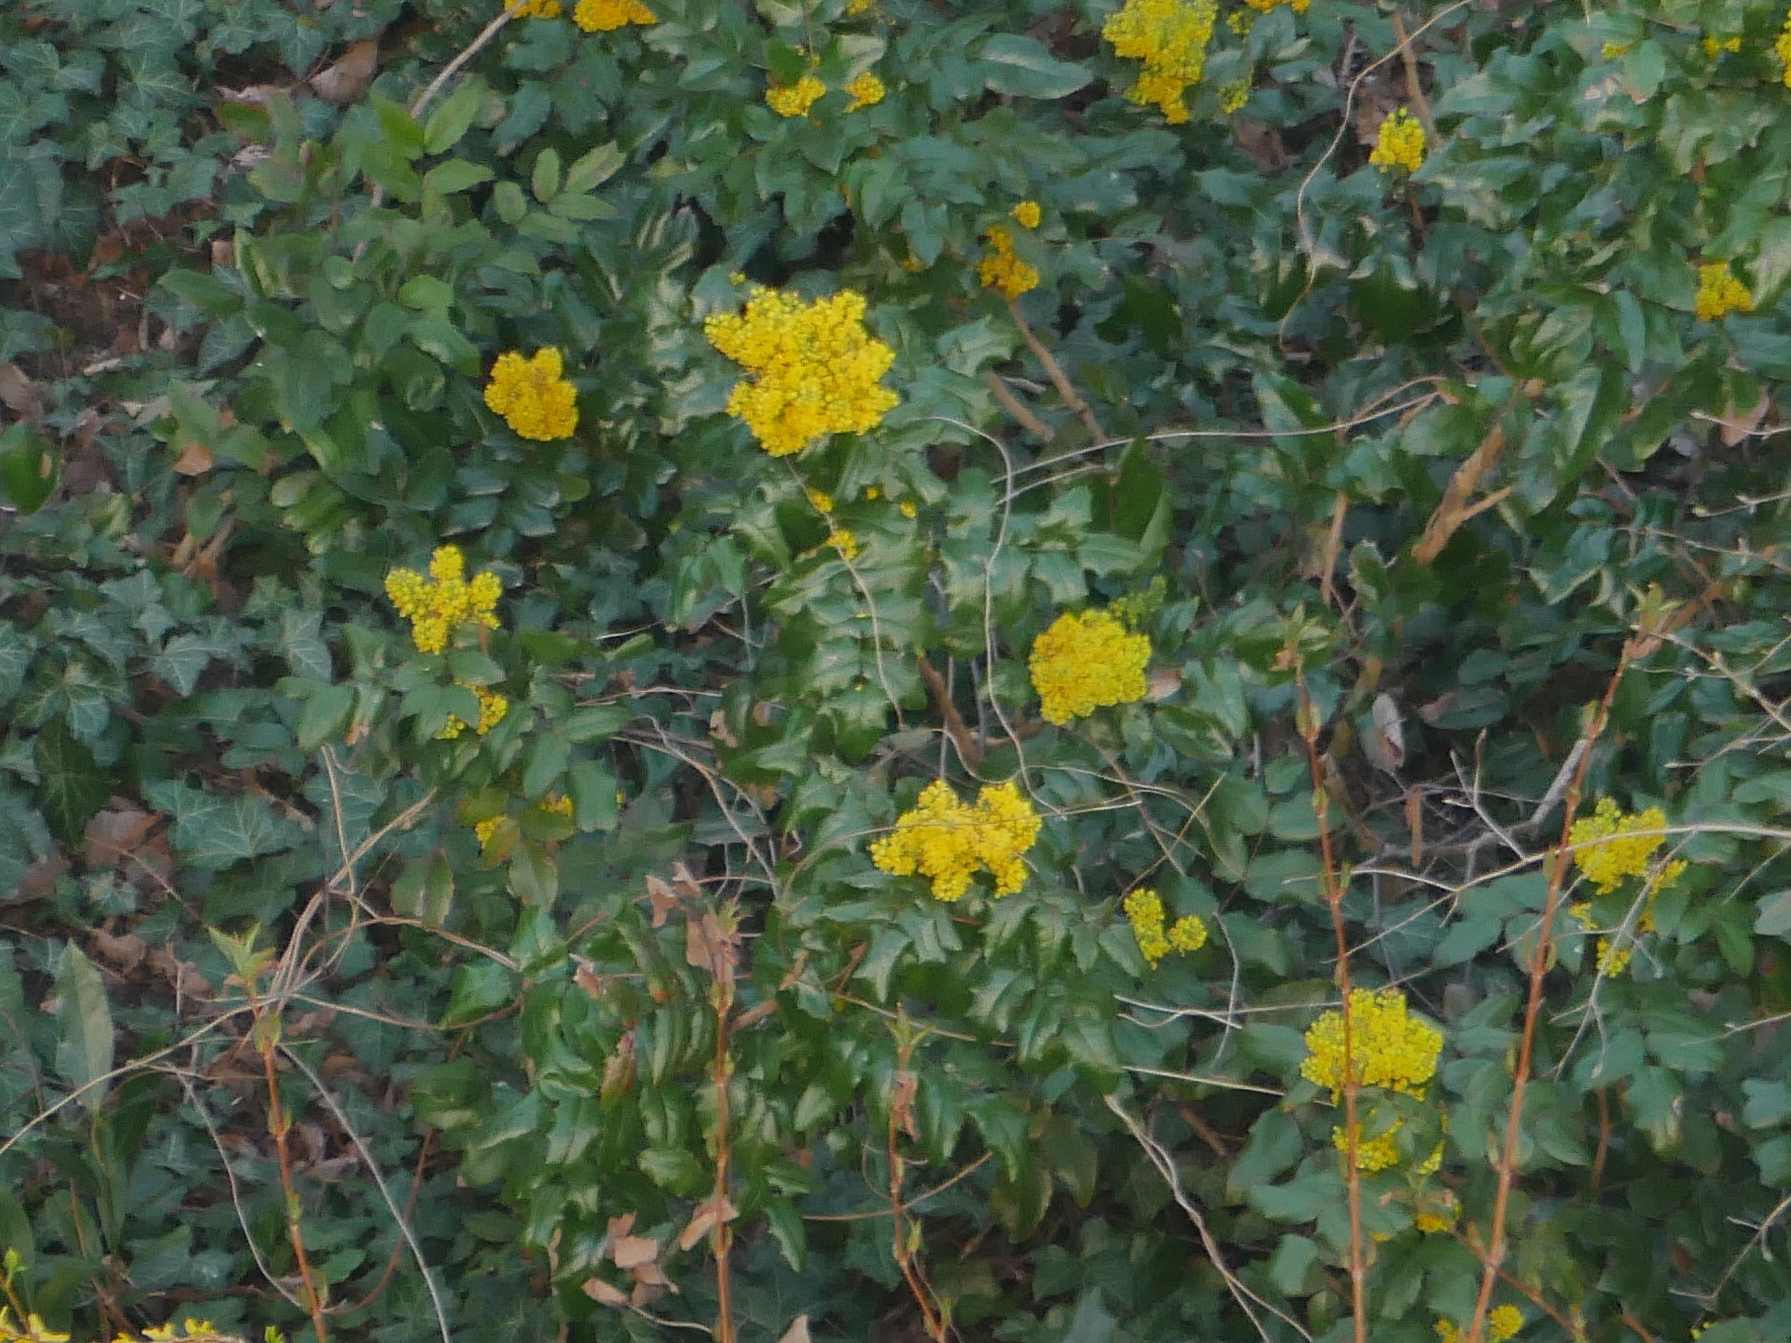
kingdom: Plantae
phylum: Tracheophyta
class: Magnoliopsida
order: Ranunculales
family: Berberidaceae
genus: Mahonia
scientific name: Mahonia aquifolium
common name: Oregon-grape
